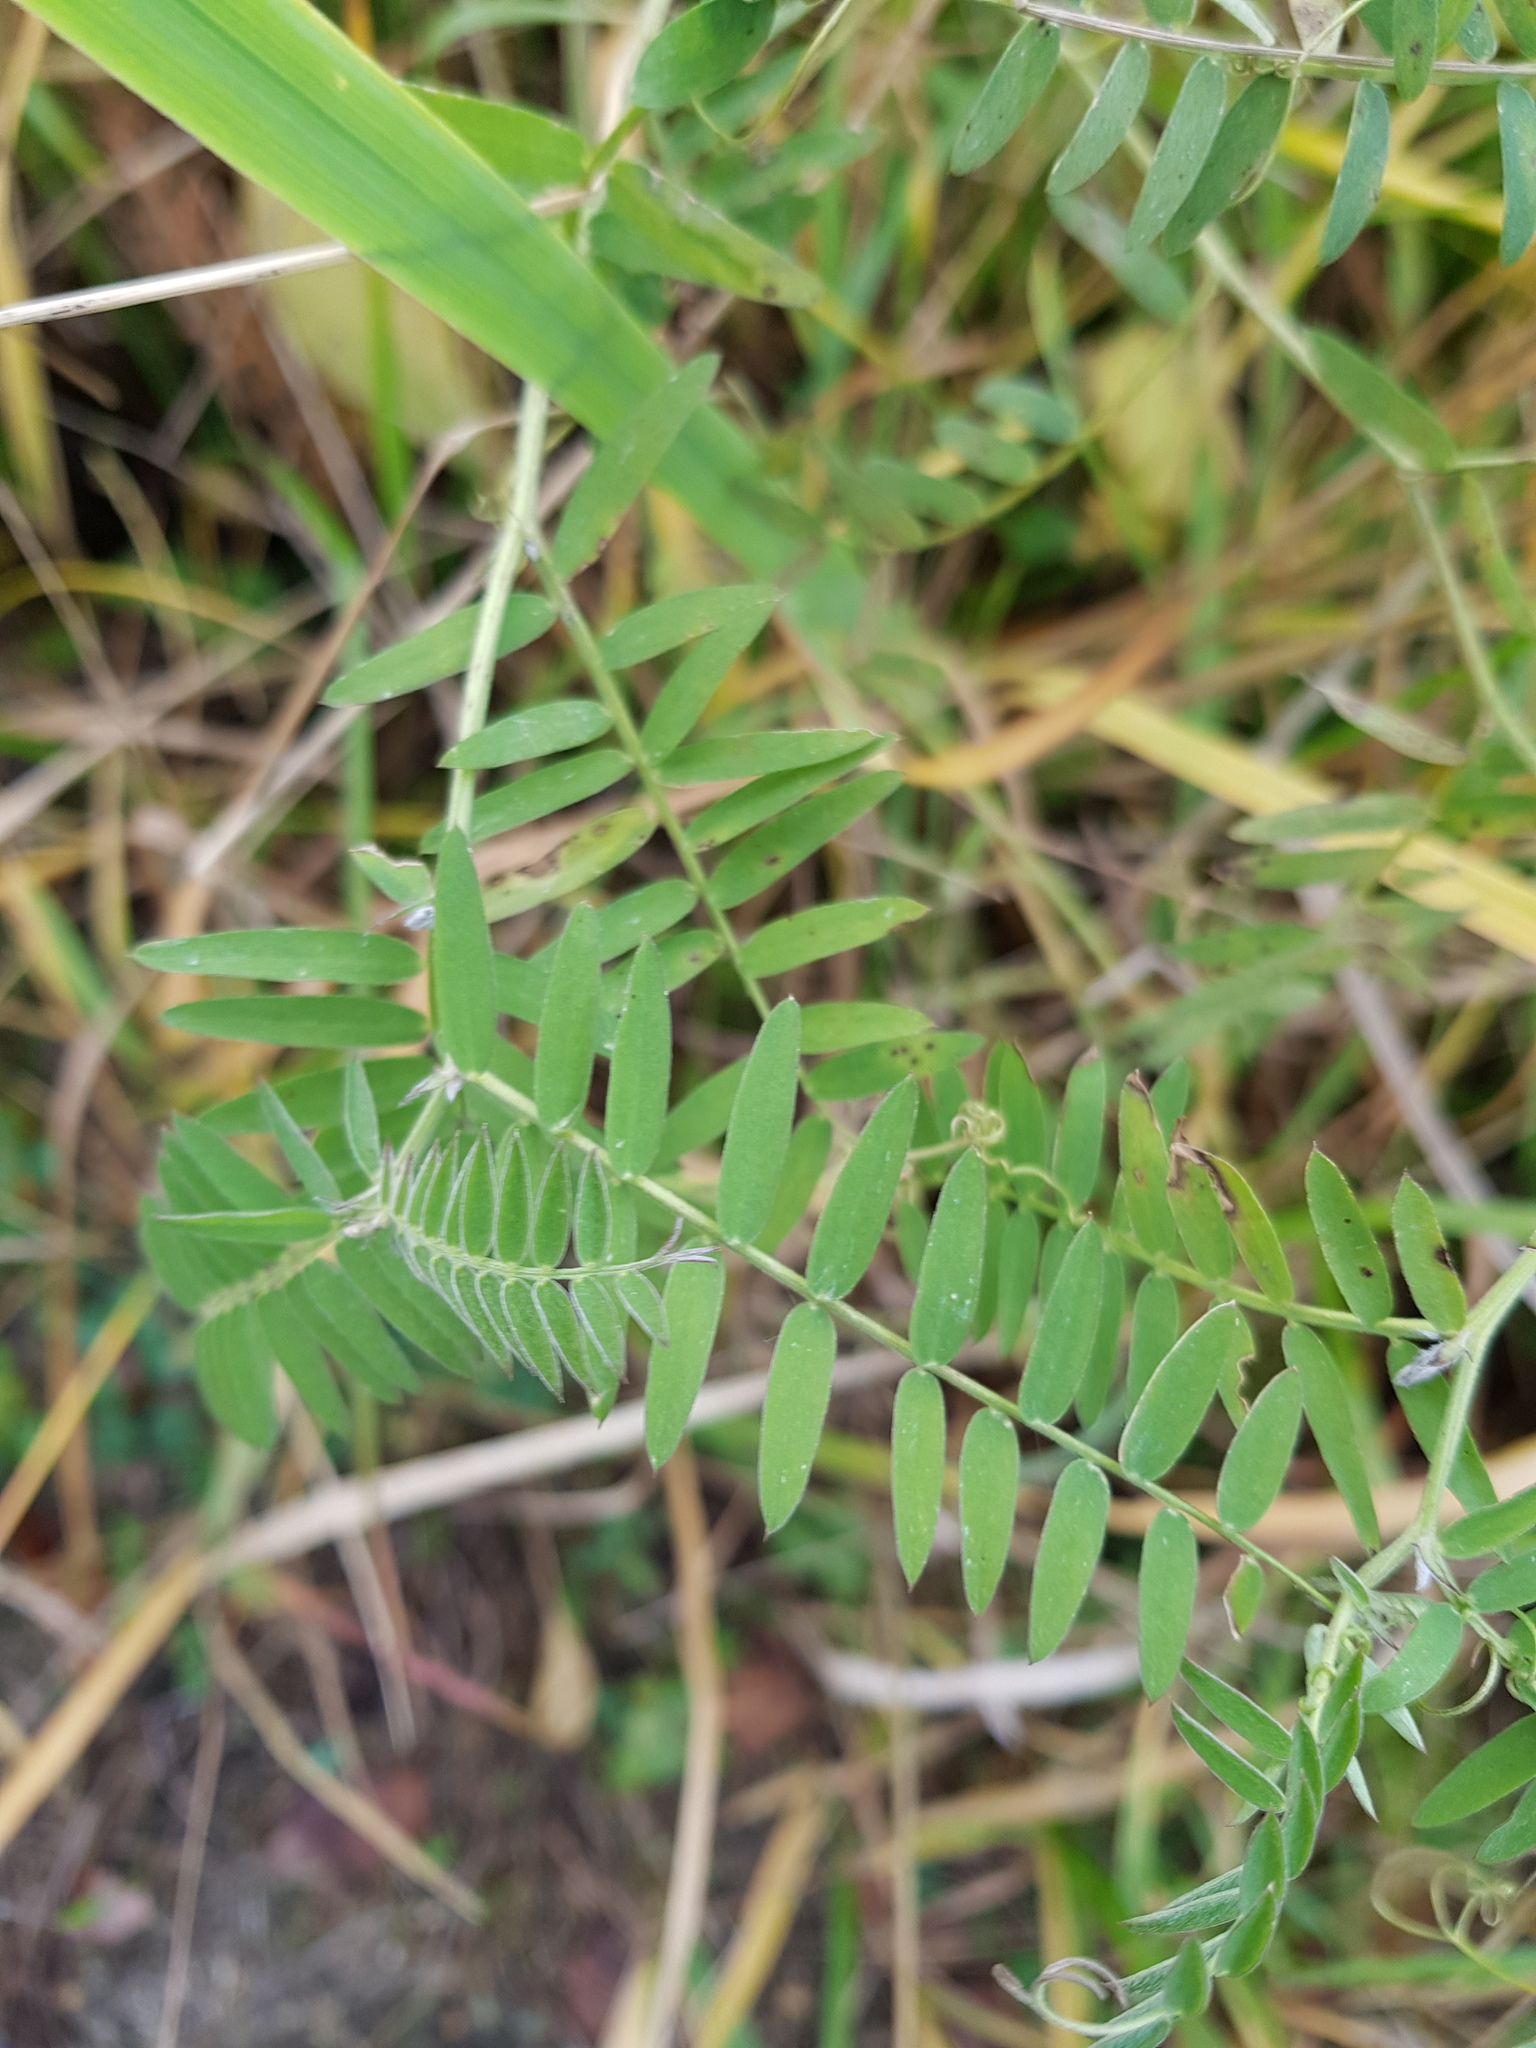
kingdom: Plantae
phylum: Tracheophyta
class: Magnoliopsida
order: Fabales
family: Fabaceae
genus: Vicia
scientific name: Vicia cracca
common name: Bird vetch
